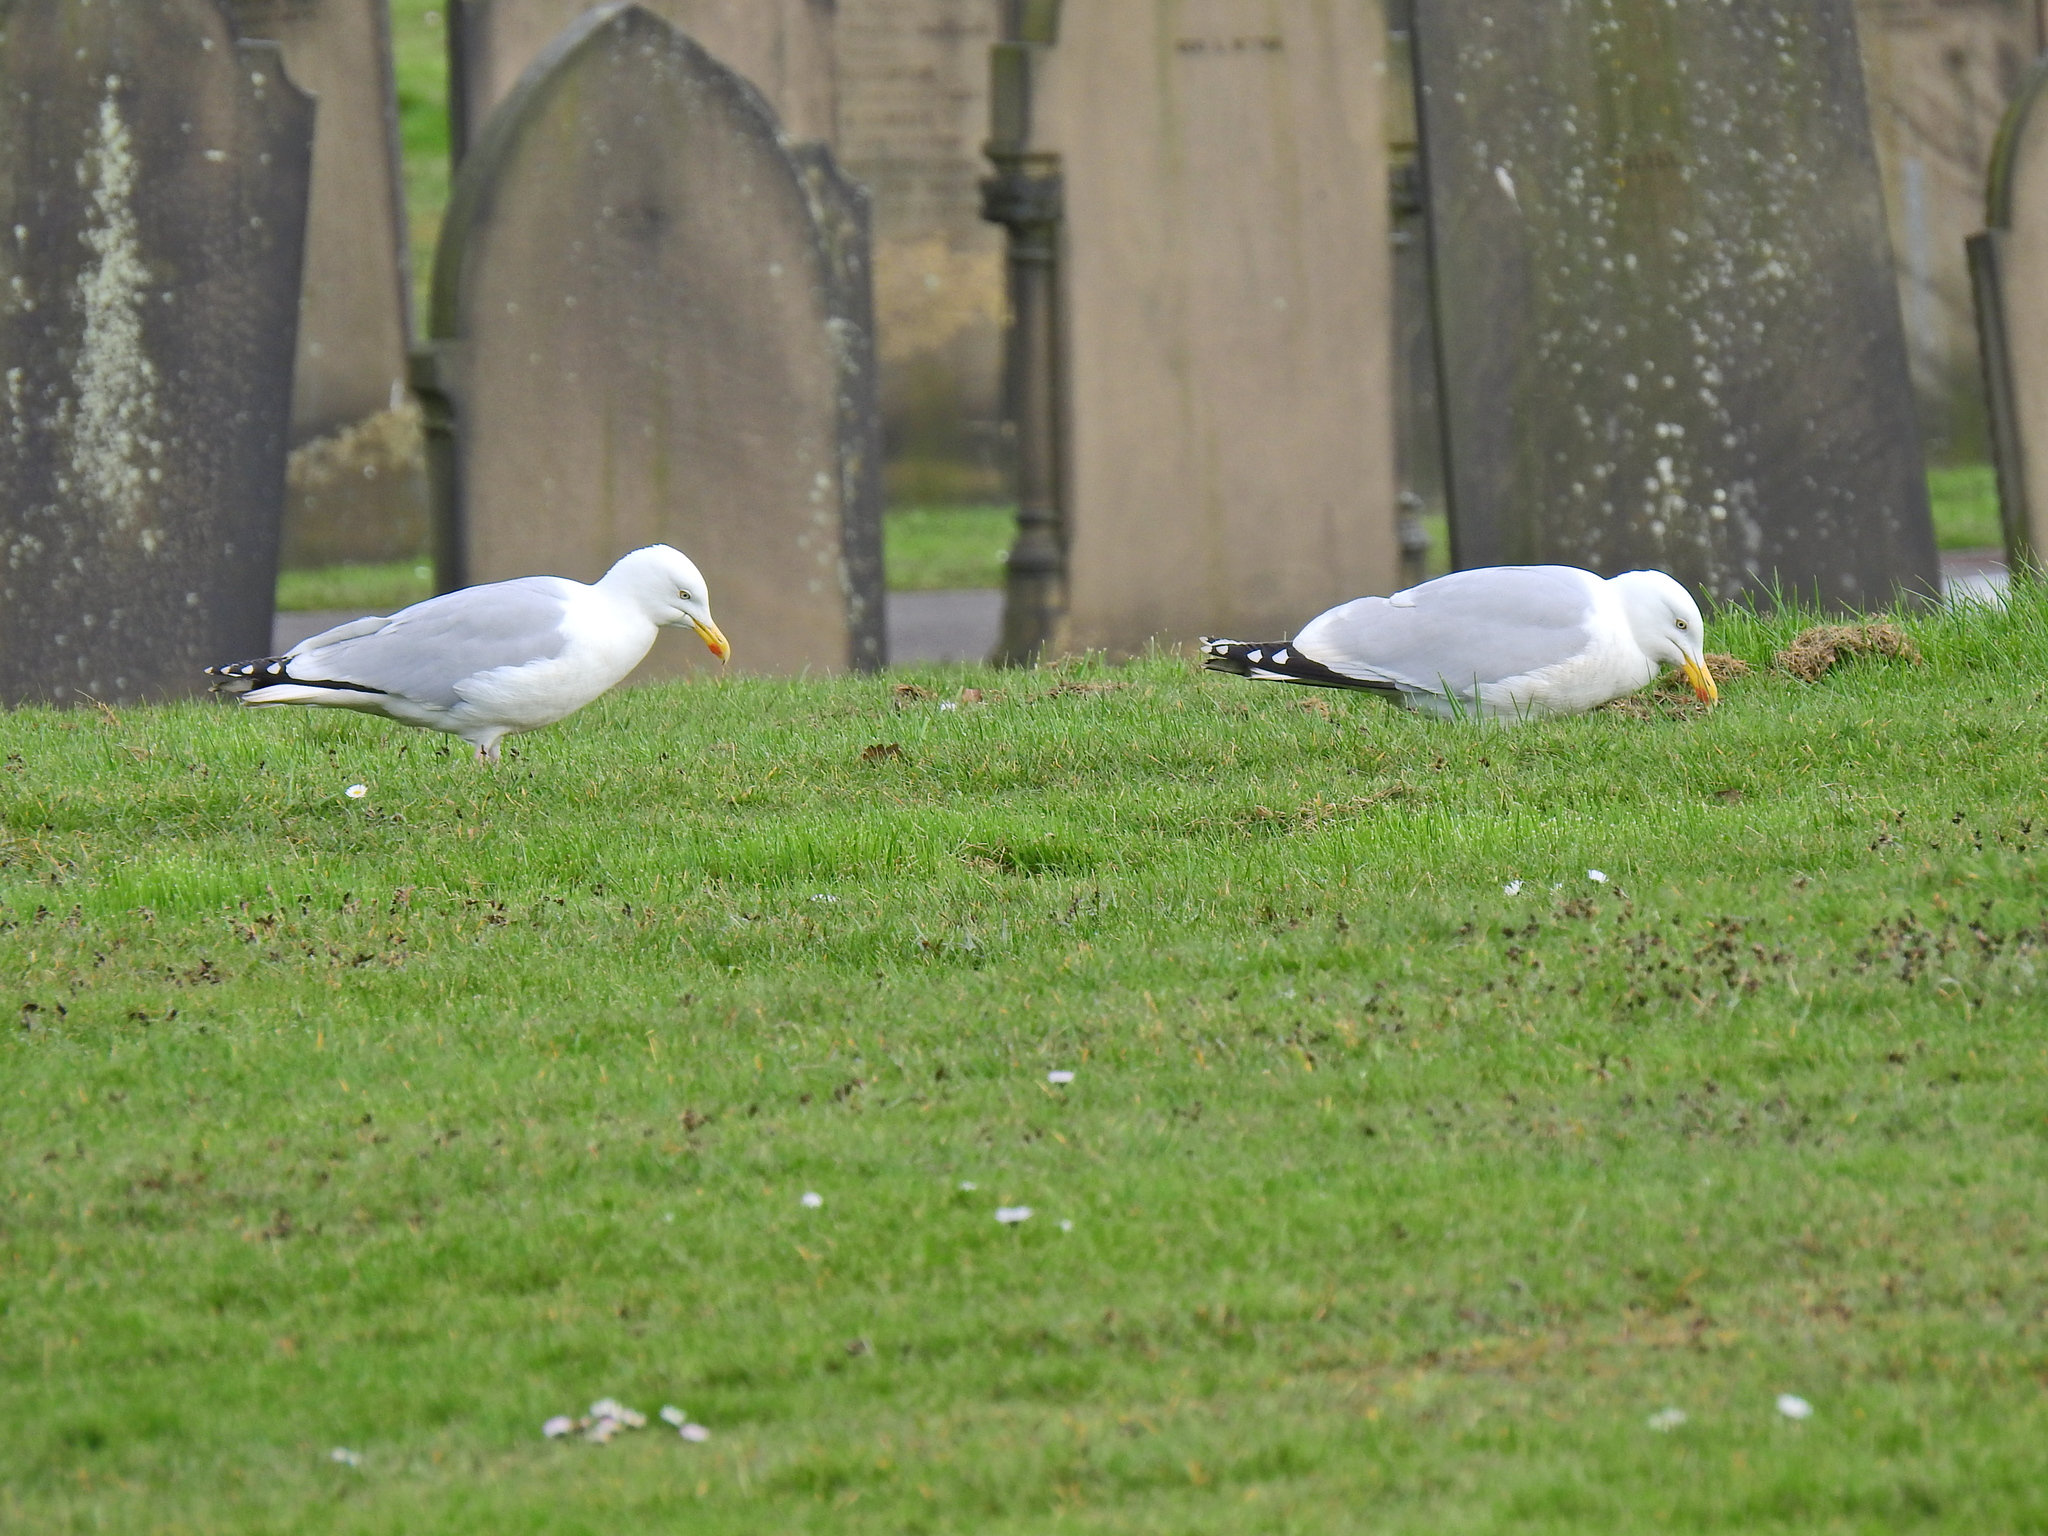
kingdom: Animalia
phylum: Chordata
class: Aves
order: Charadriiformes
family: Laridae
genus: Larus
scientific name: Larus argentatus
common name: Herring gull
